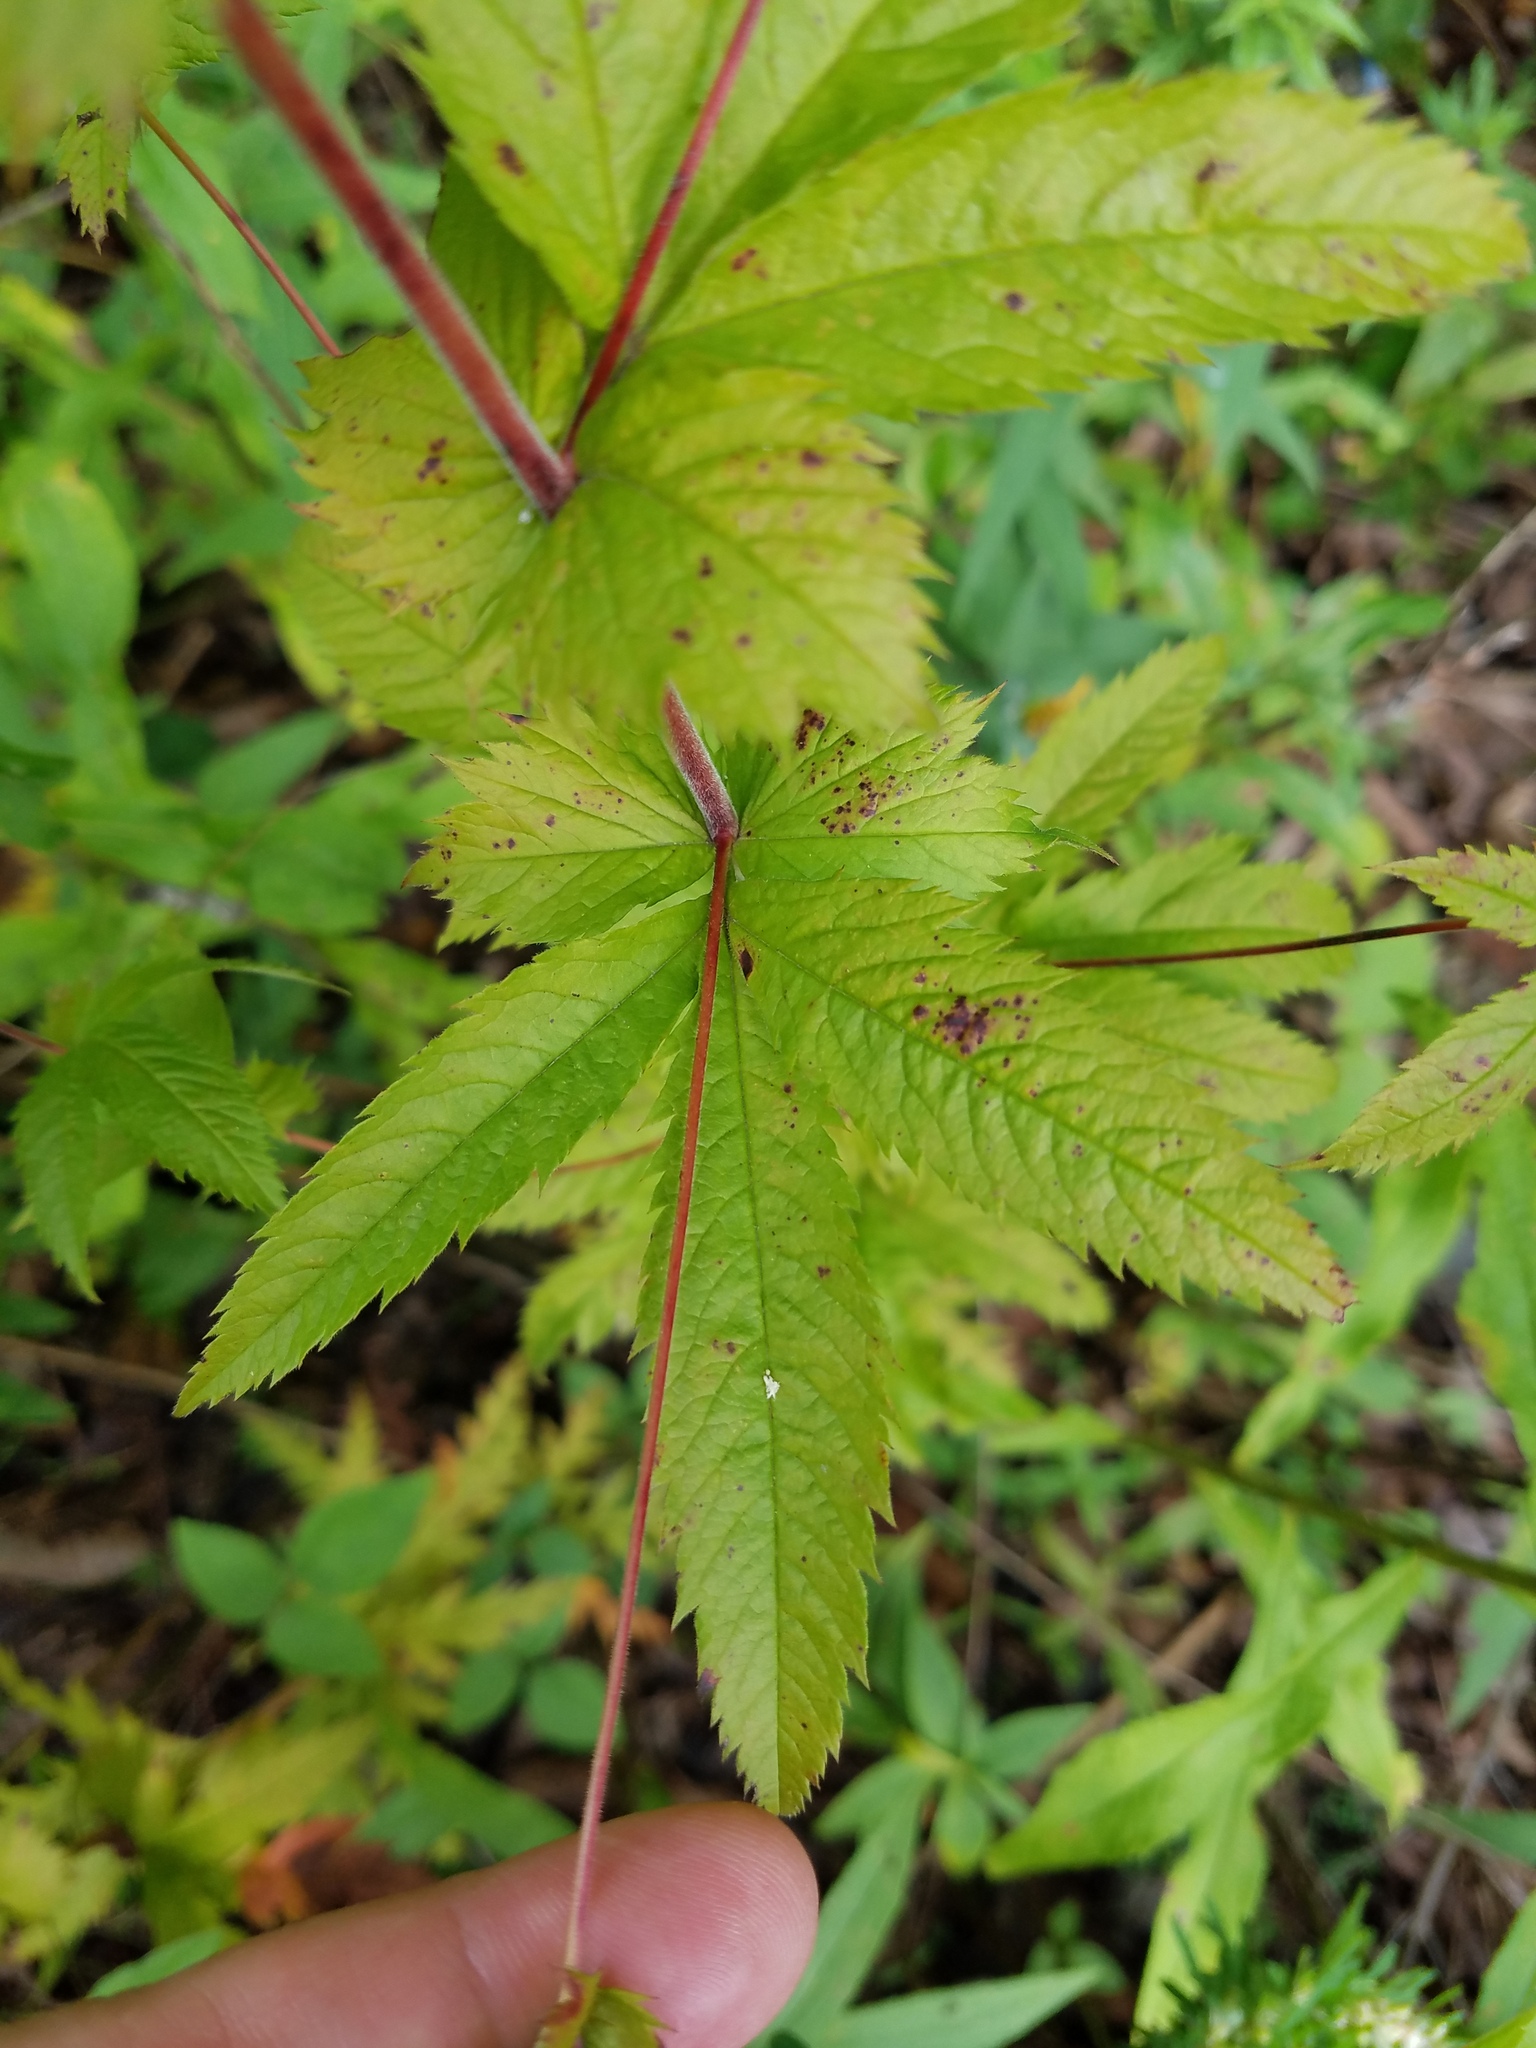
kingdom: Plantae
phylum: Tracheophyta
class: Magnoliopsida
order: Rosales
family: Rosaceae
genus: Gillenia
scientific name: Gillenia stipulata
